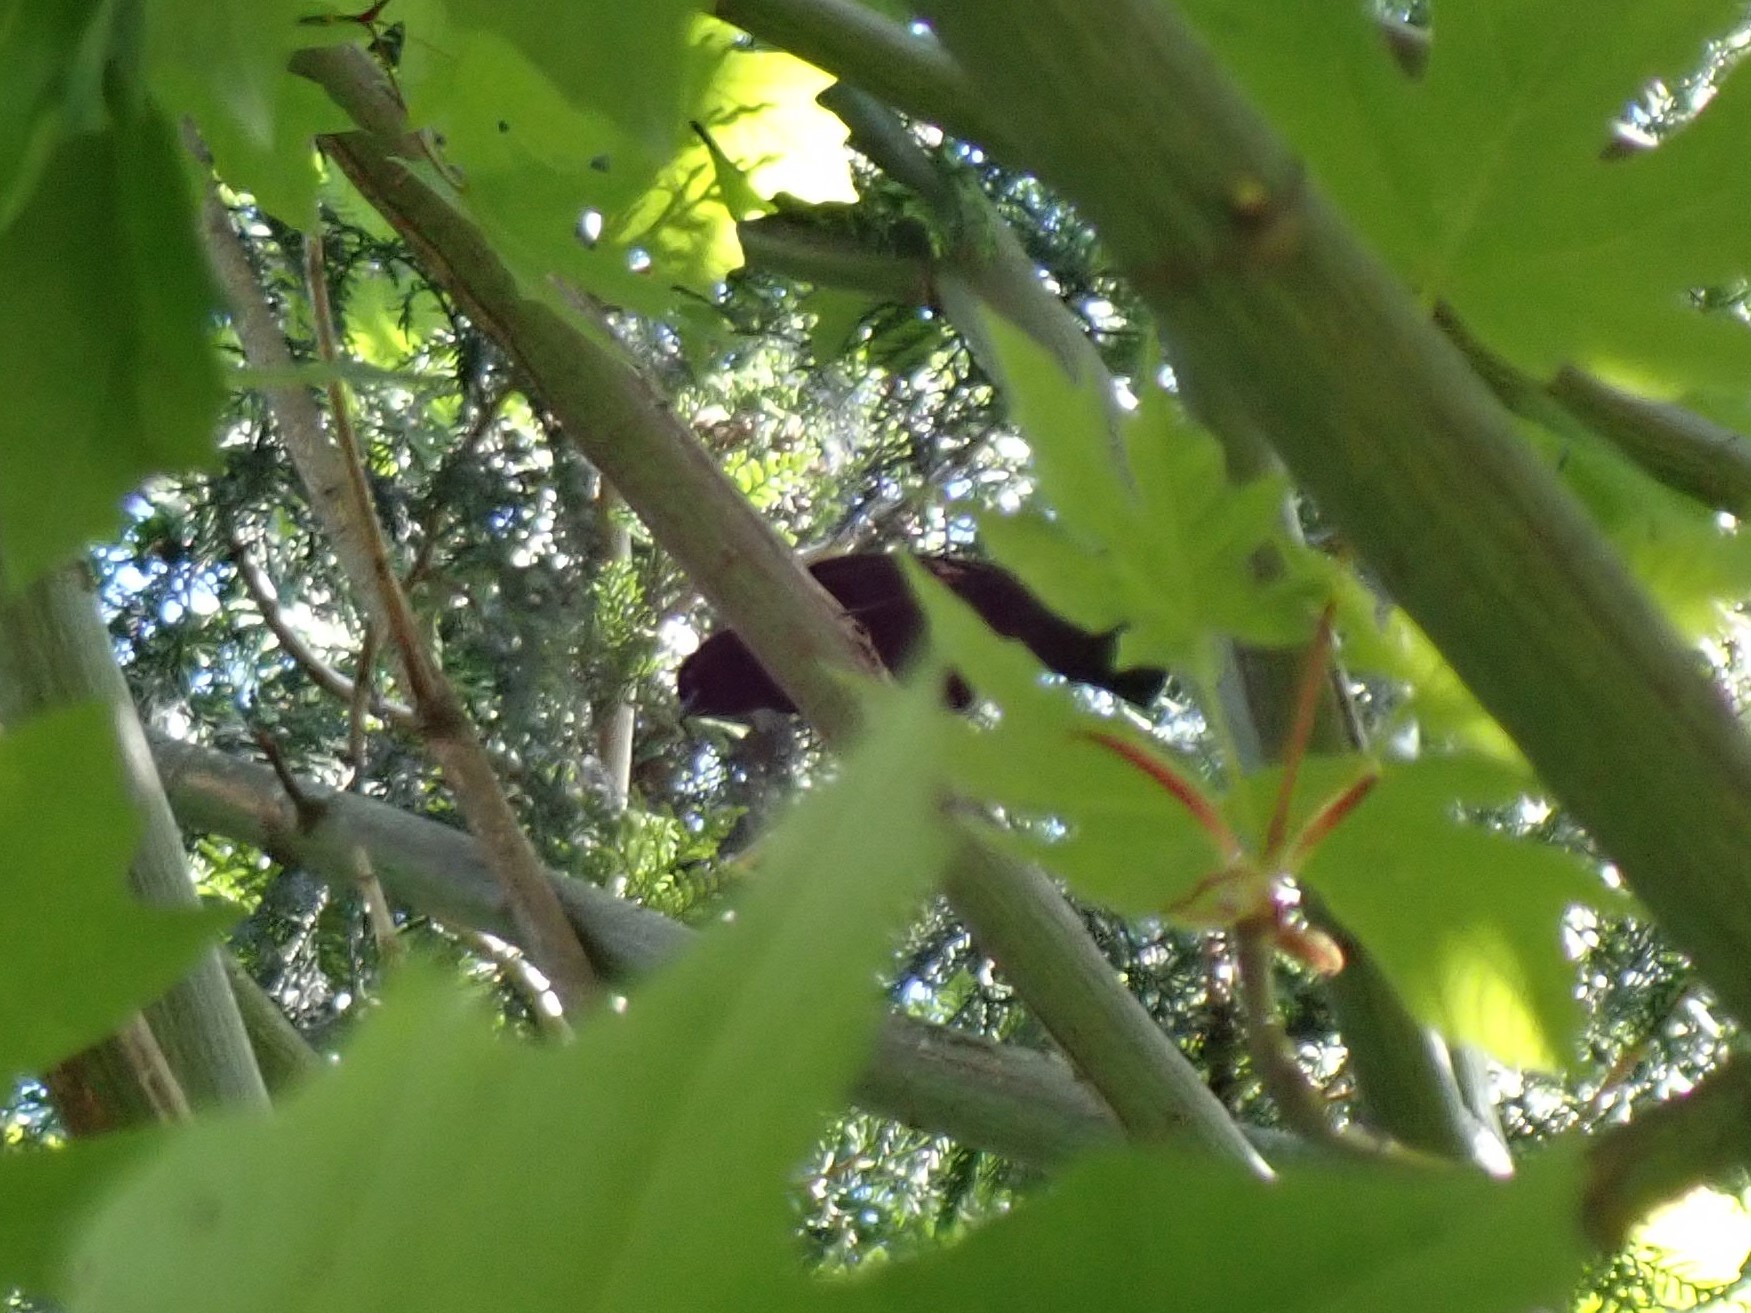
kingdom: Animalia
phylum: Chordata
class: Aves
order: Passeriformes
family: Icteridae
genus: Agelaius
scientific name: Agelaius phoeniceus
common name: Red-winged blackbird
